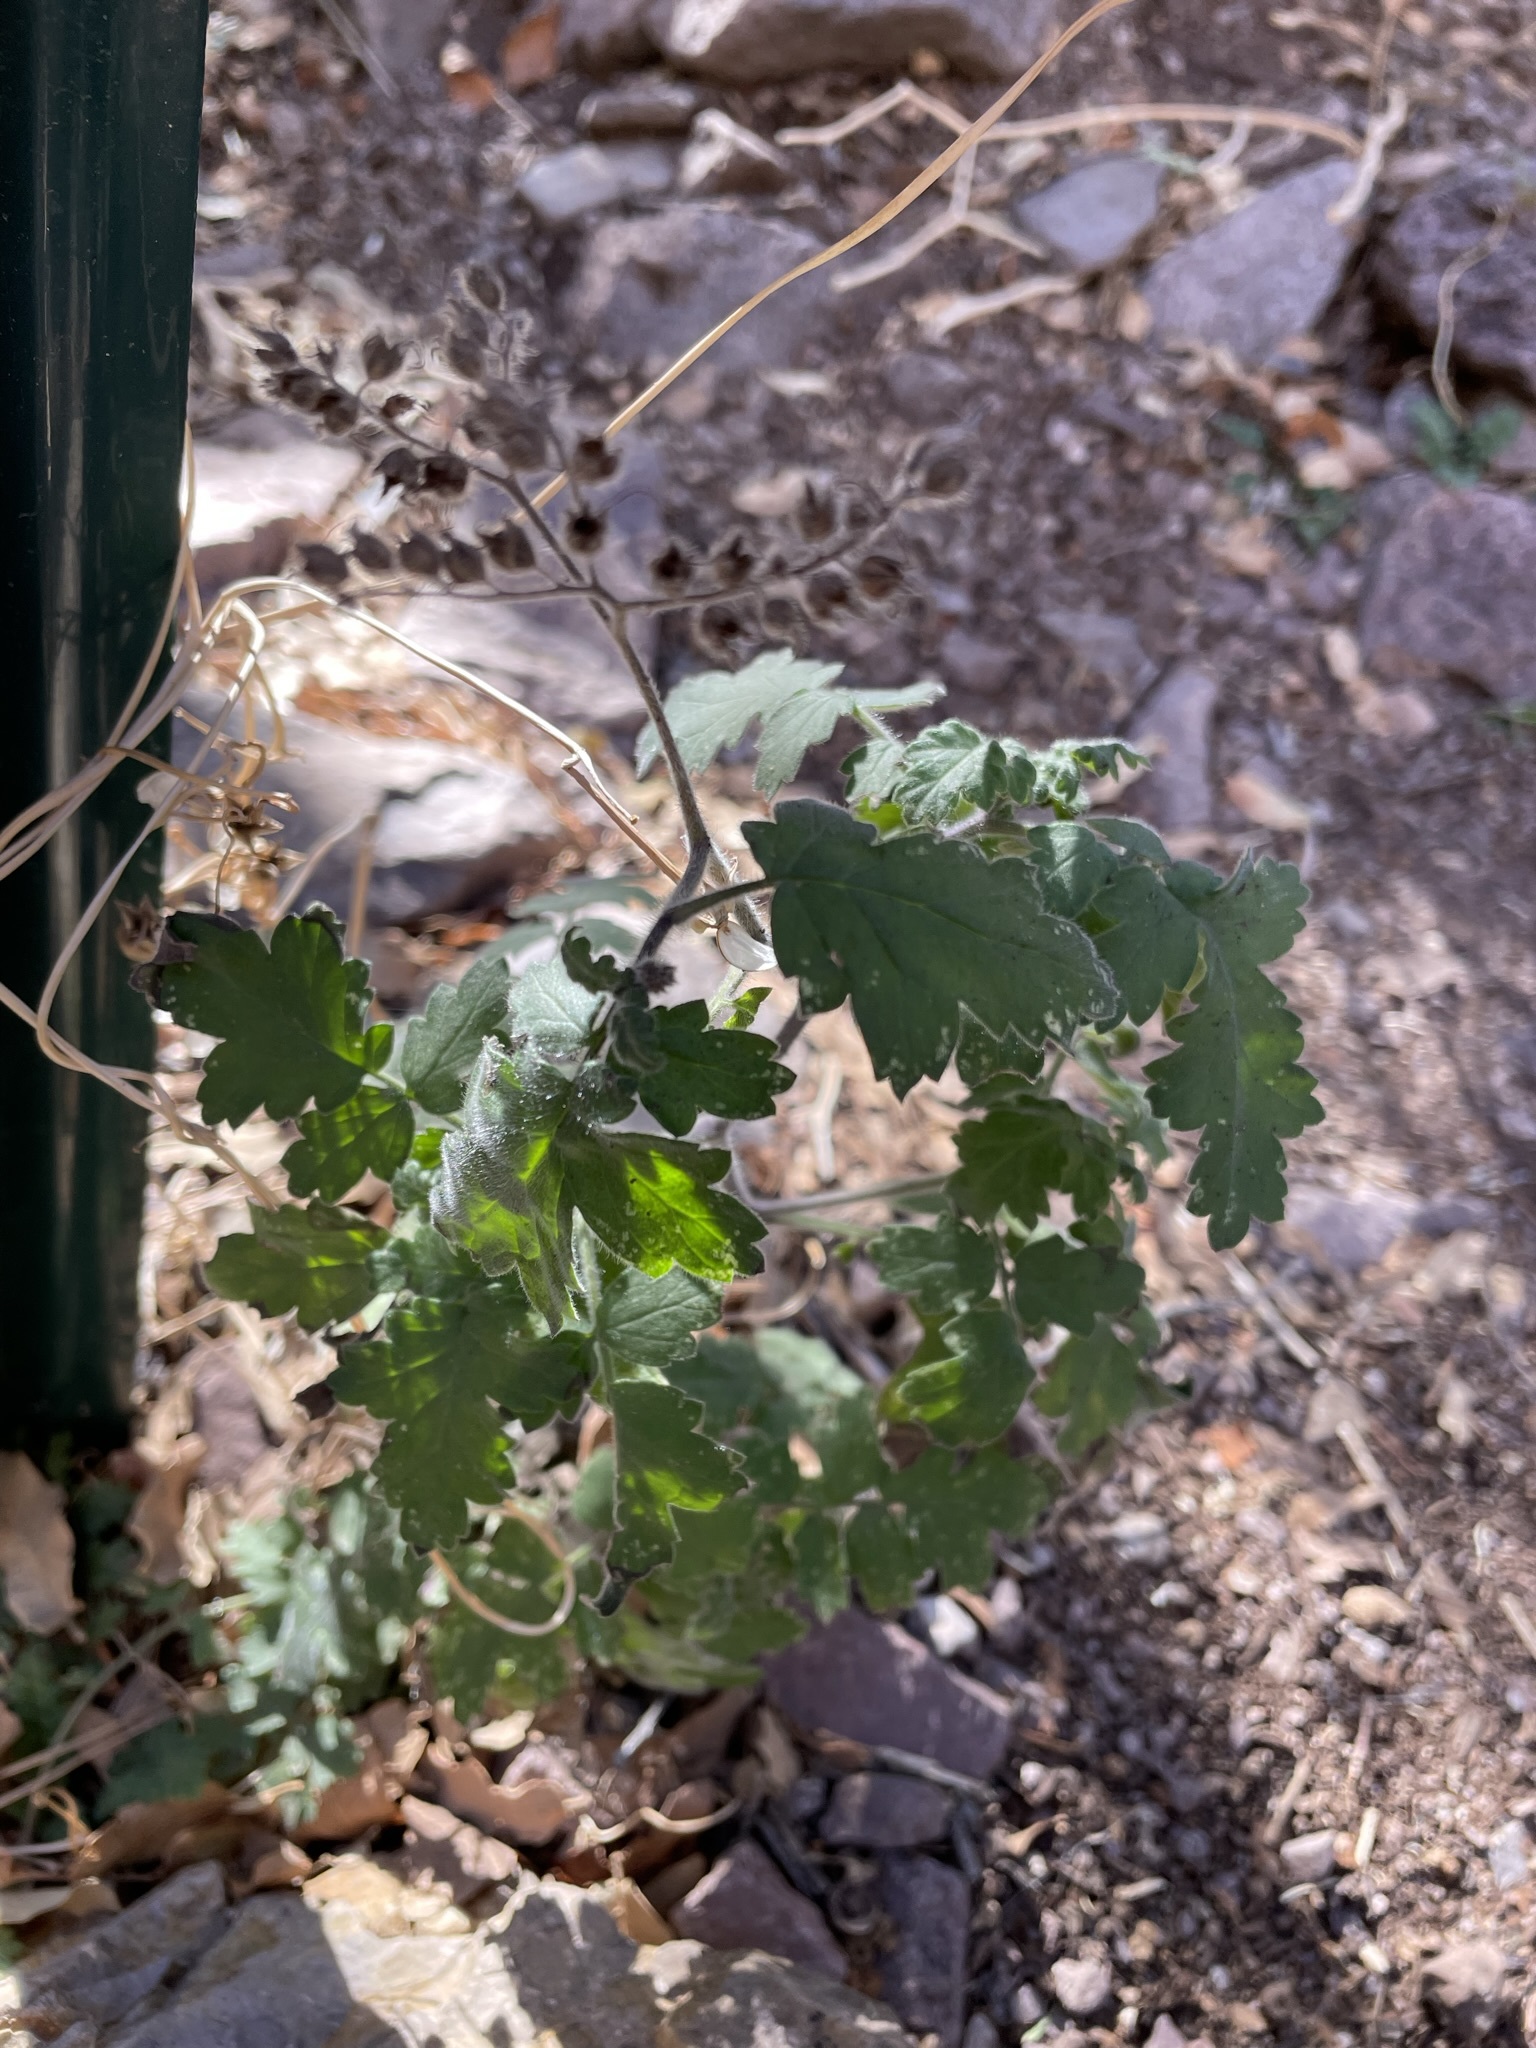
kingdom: Plantae
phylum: Tracheophyta
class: Magnoliopsida
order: Boraginales
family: Hydrophyllaceae
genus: Phacelia
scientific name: Phacelia rupestris
